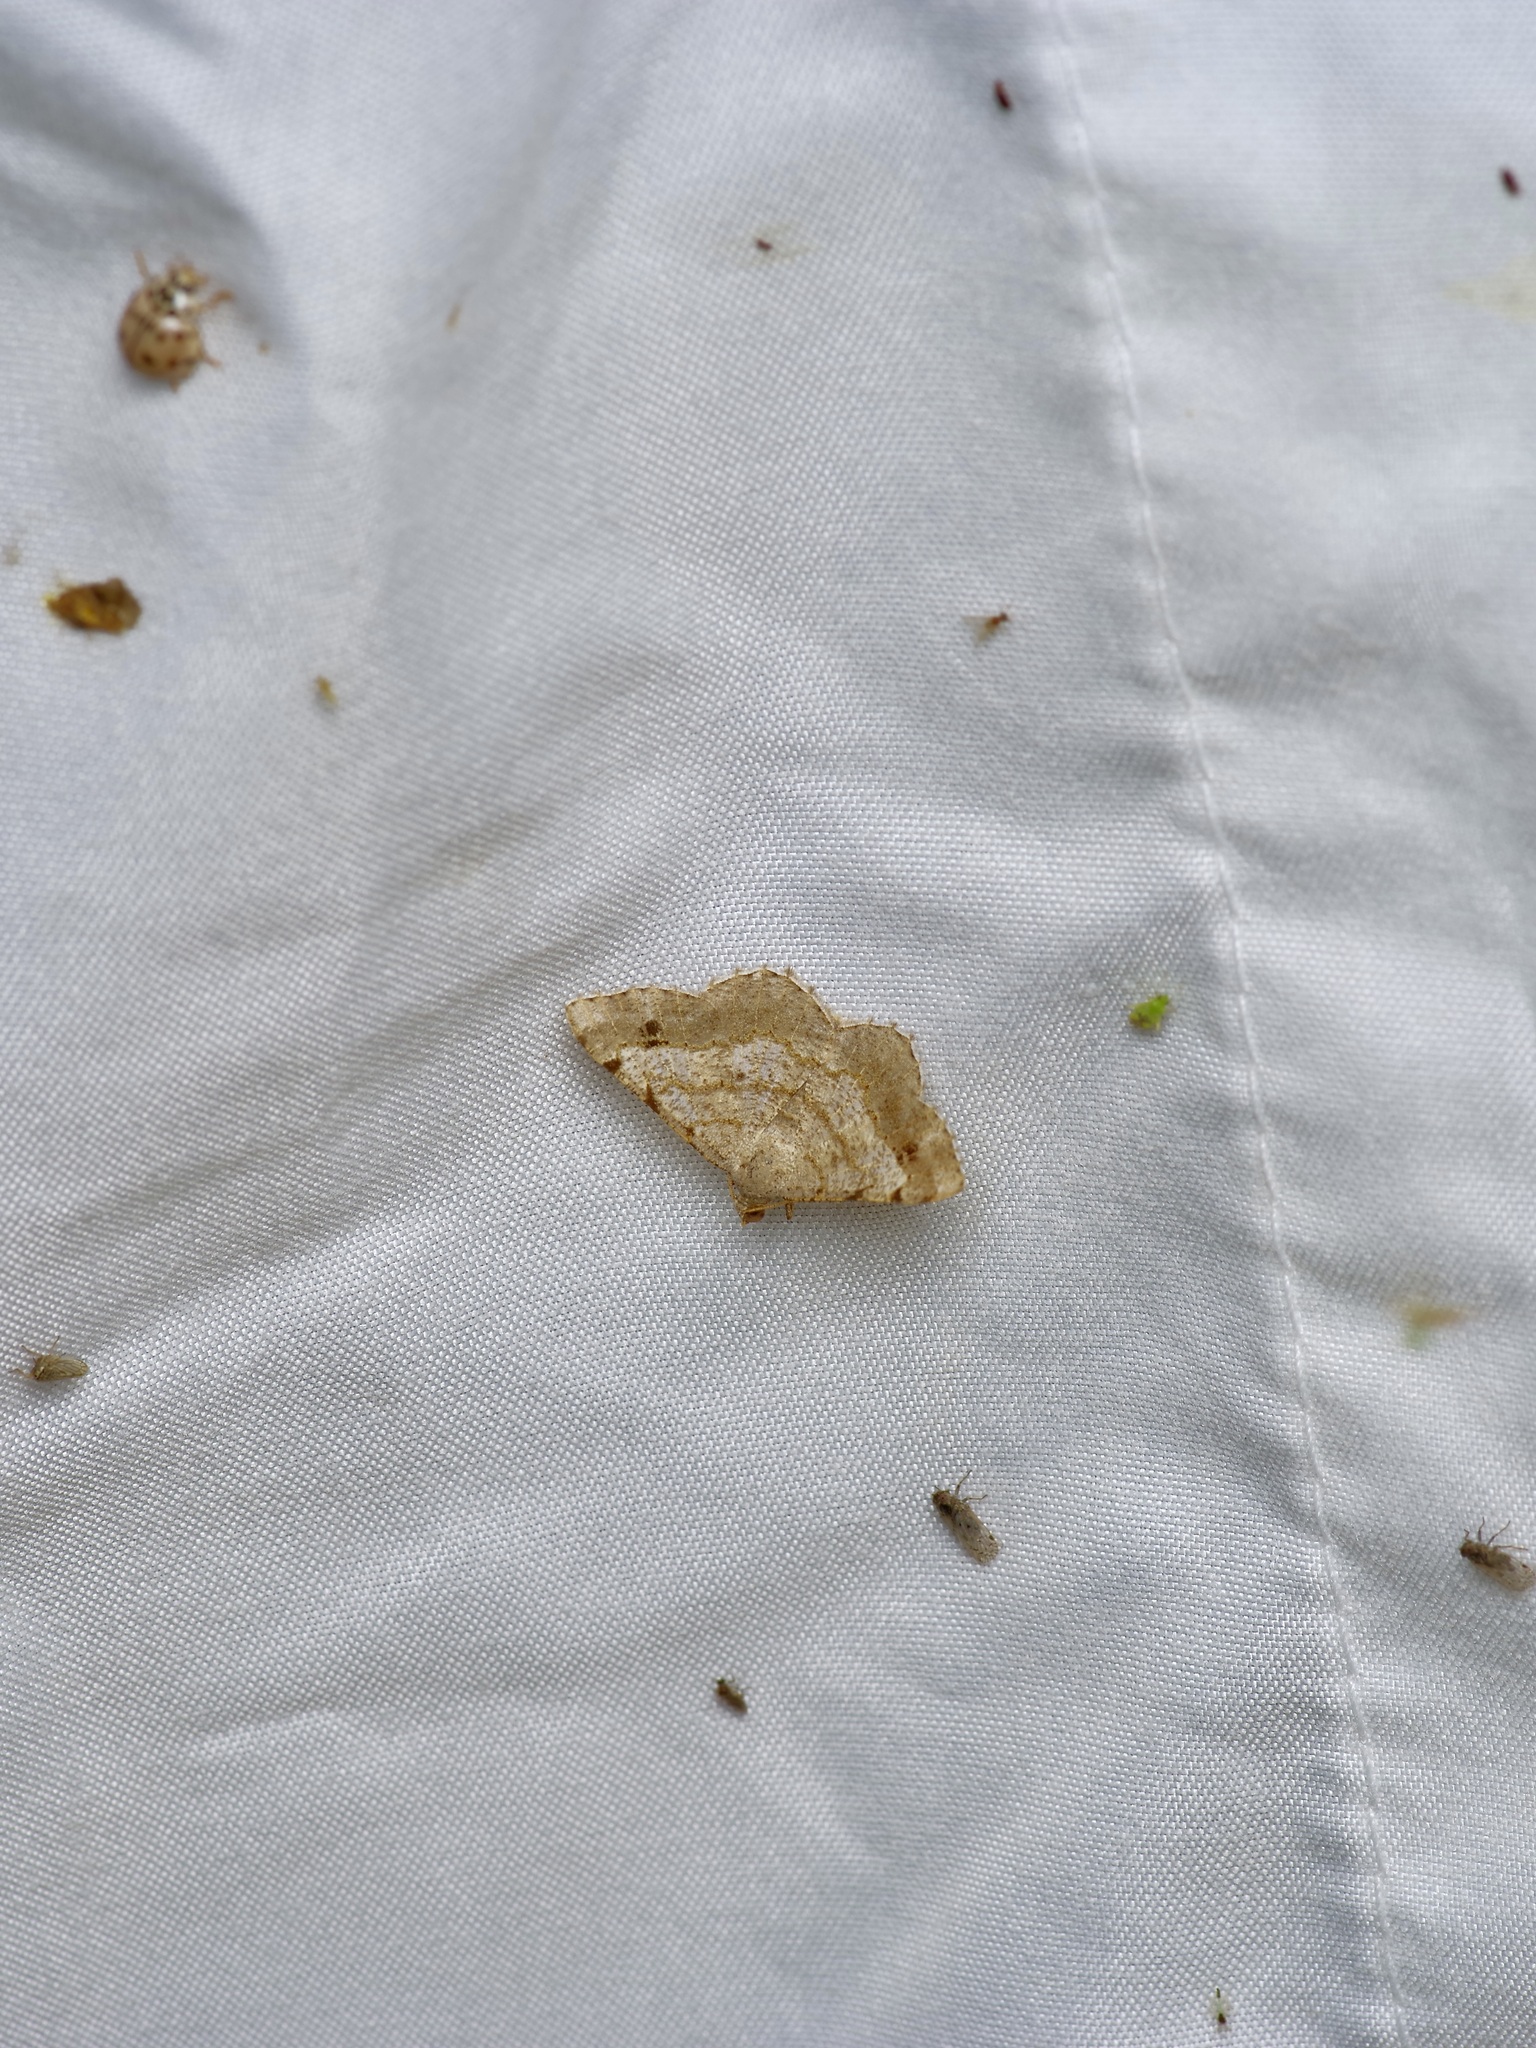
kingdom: Animalia
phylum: Arthropoda
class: Insecta
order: Lepidoptera
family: Geometridae
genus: Macaria
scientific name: Macaria abydata
